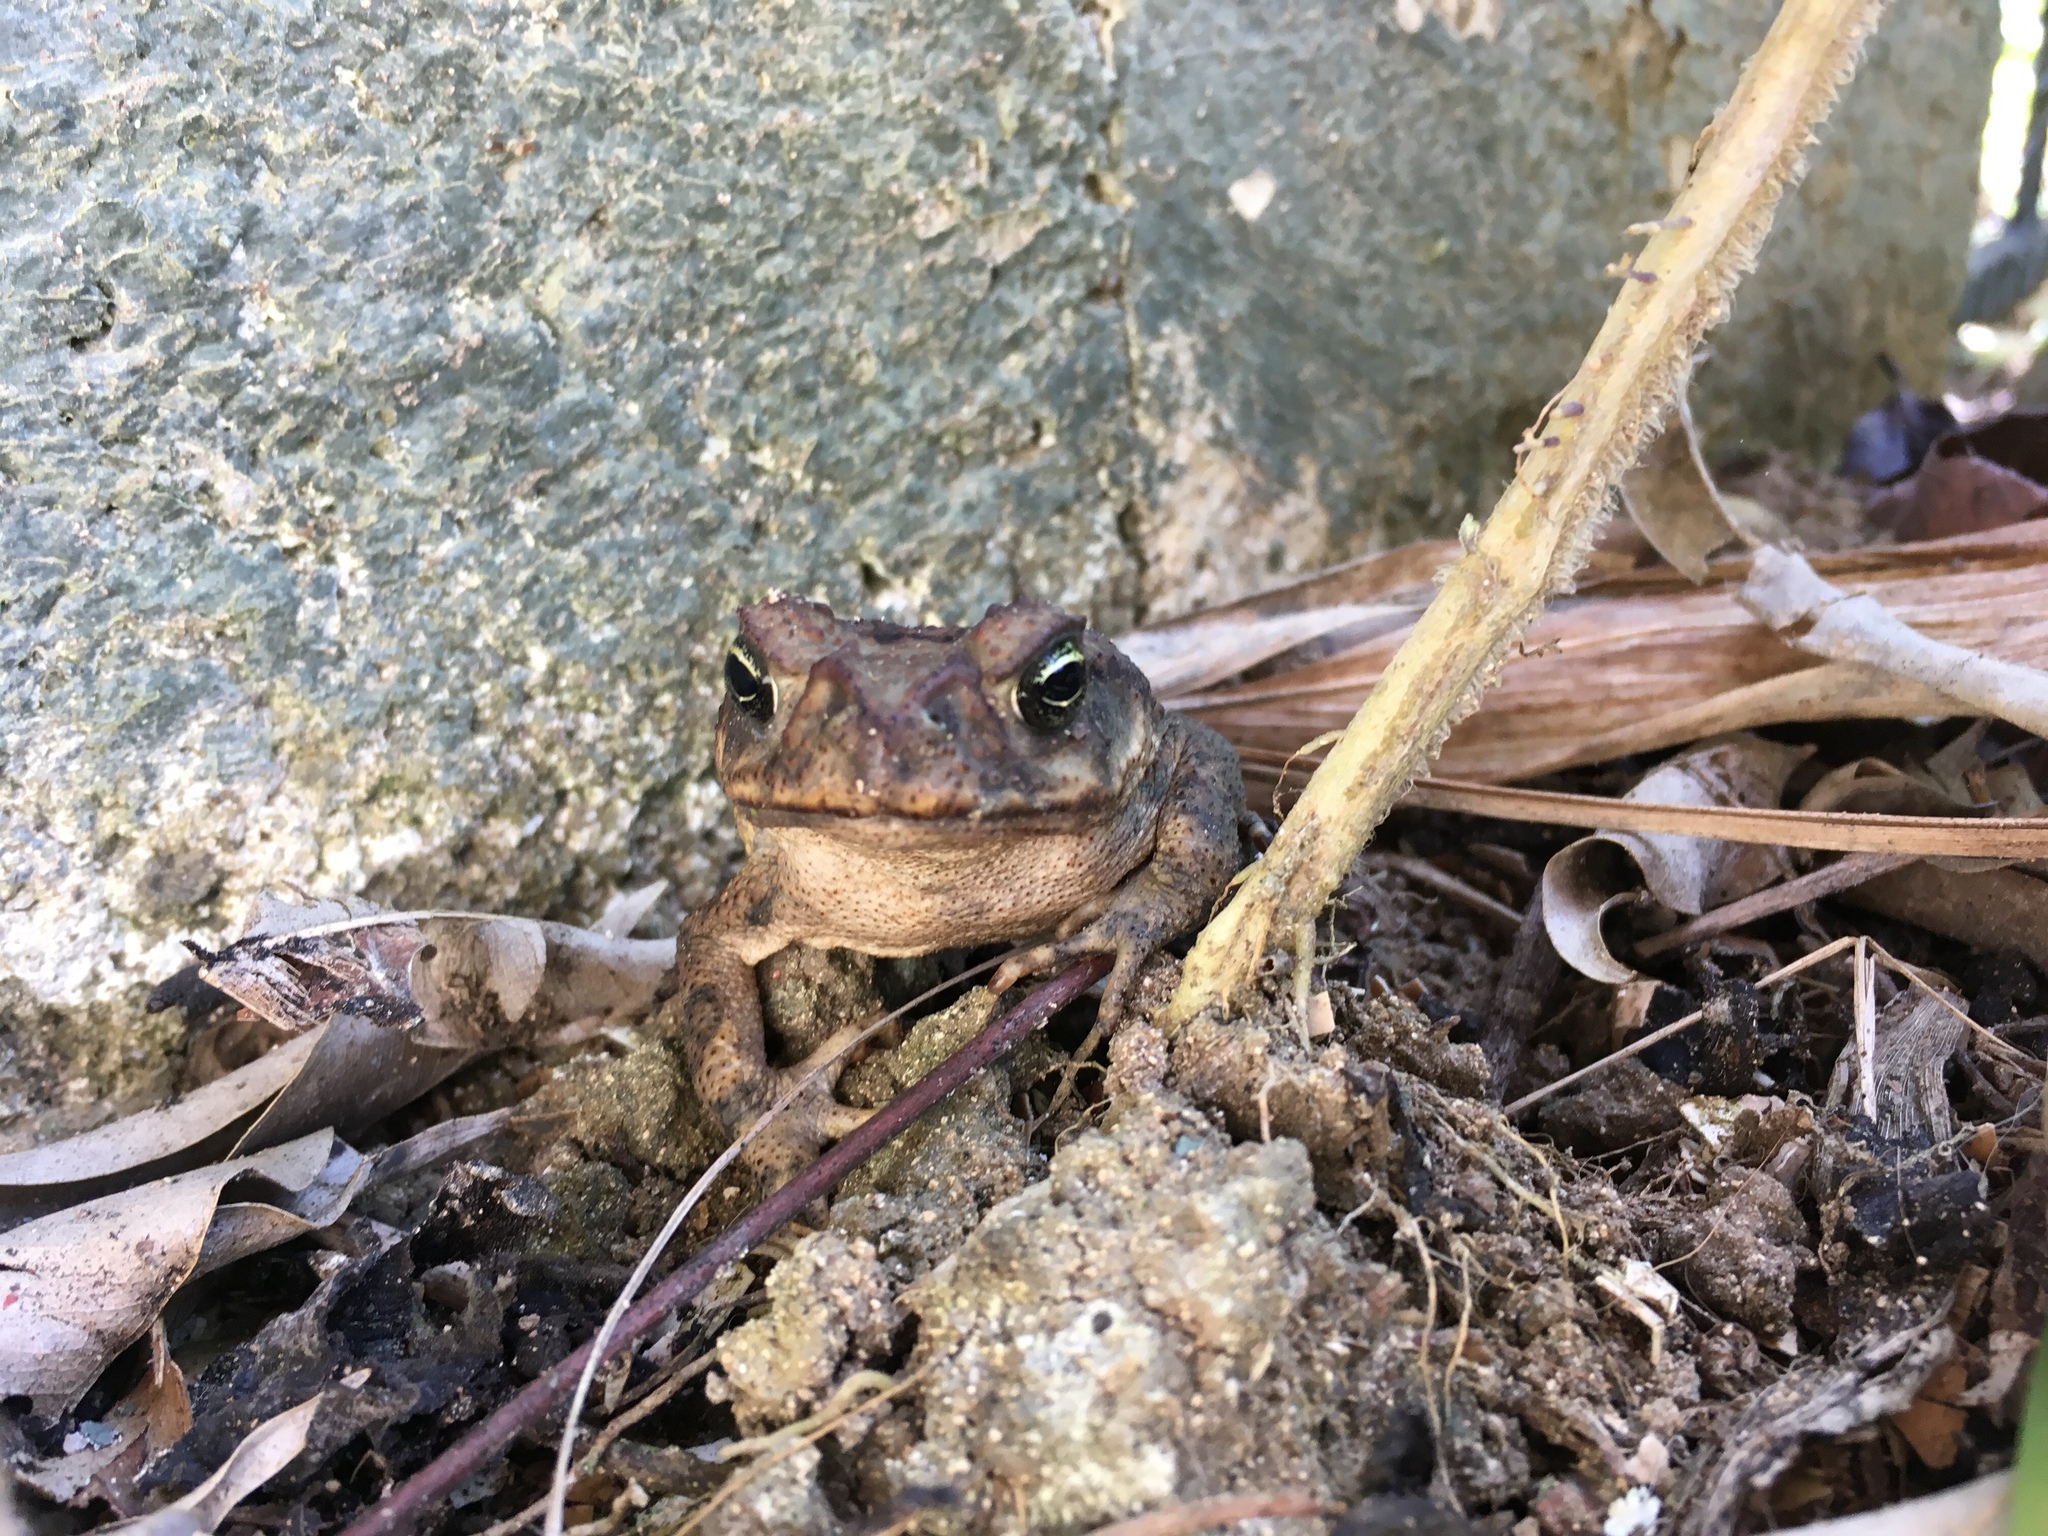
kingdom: Animalia
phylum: Chordata
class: Amphibia
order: Anura
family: Bufonidae
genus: Incilius
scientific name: Incilius valliceps
